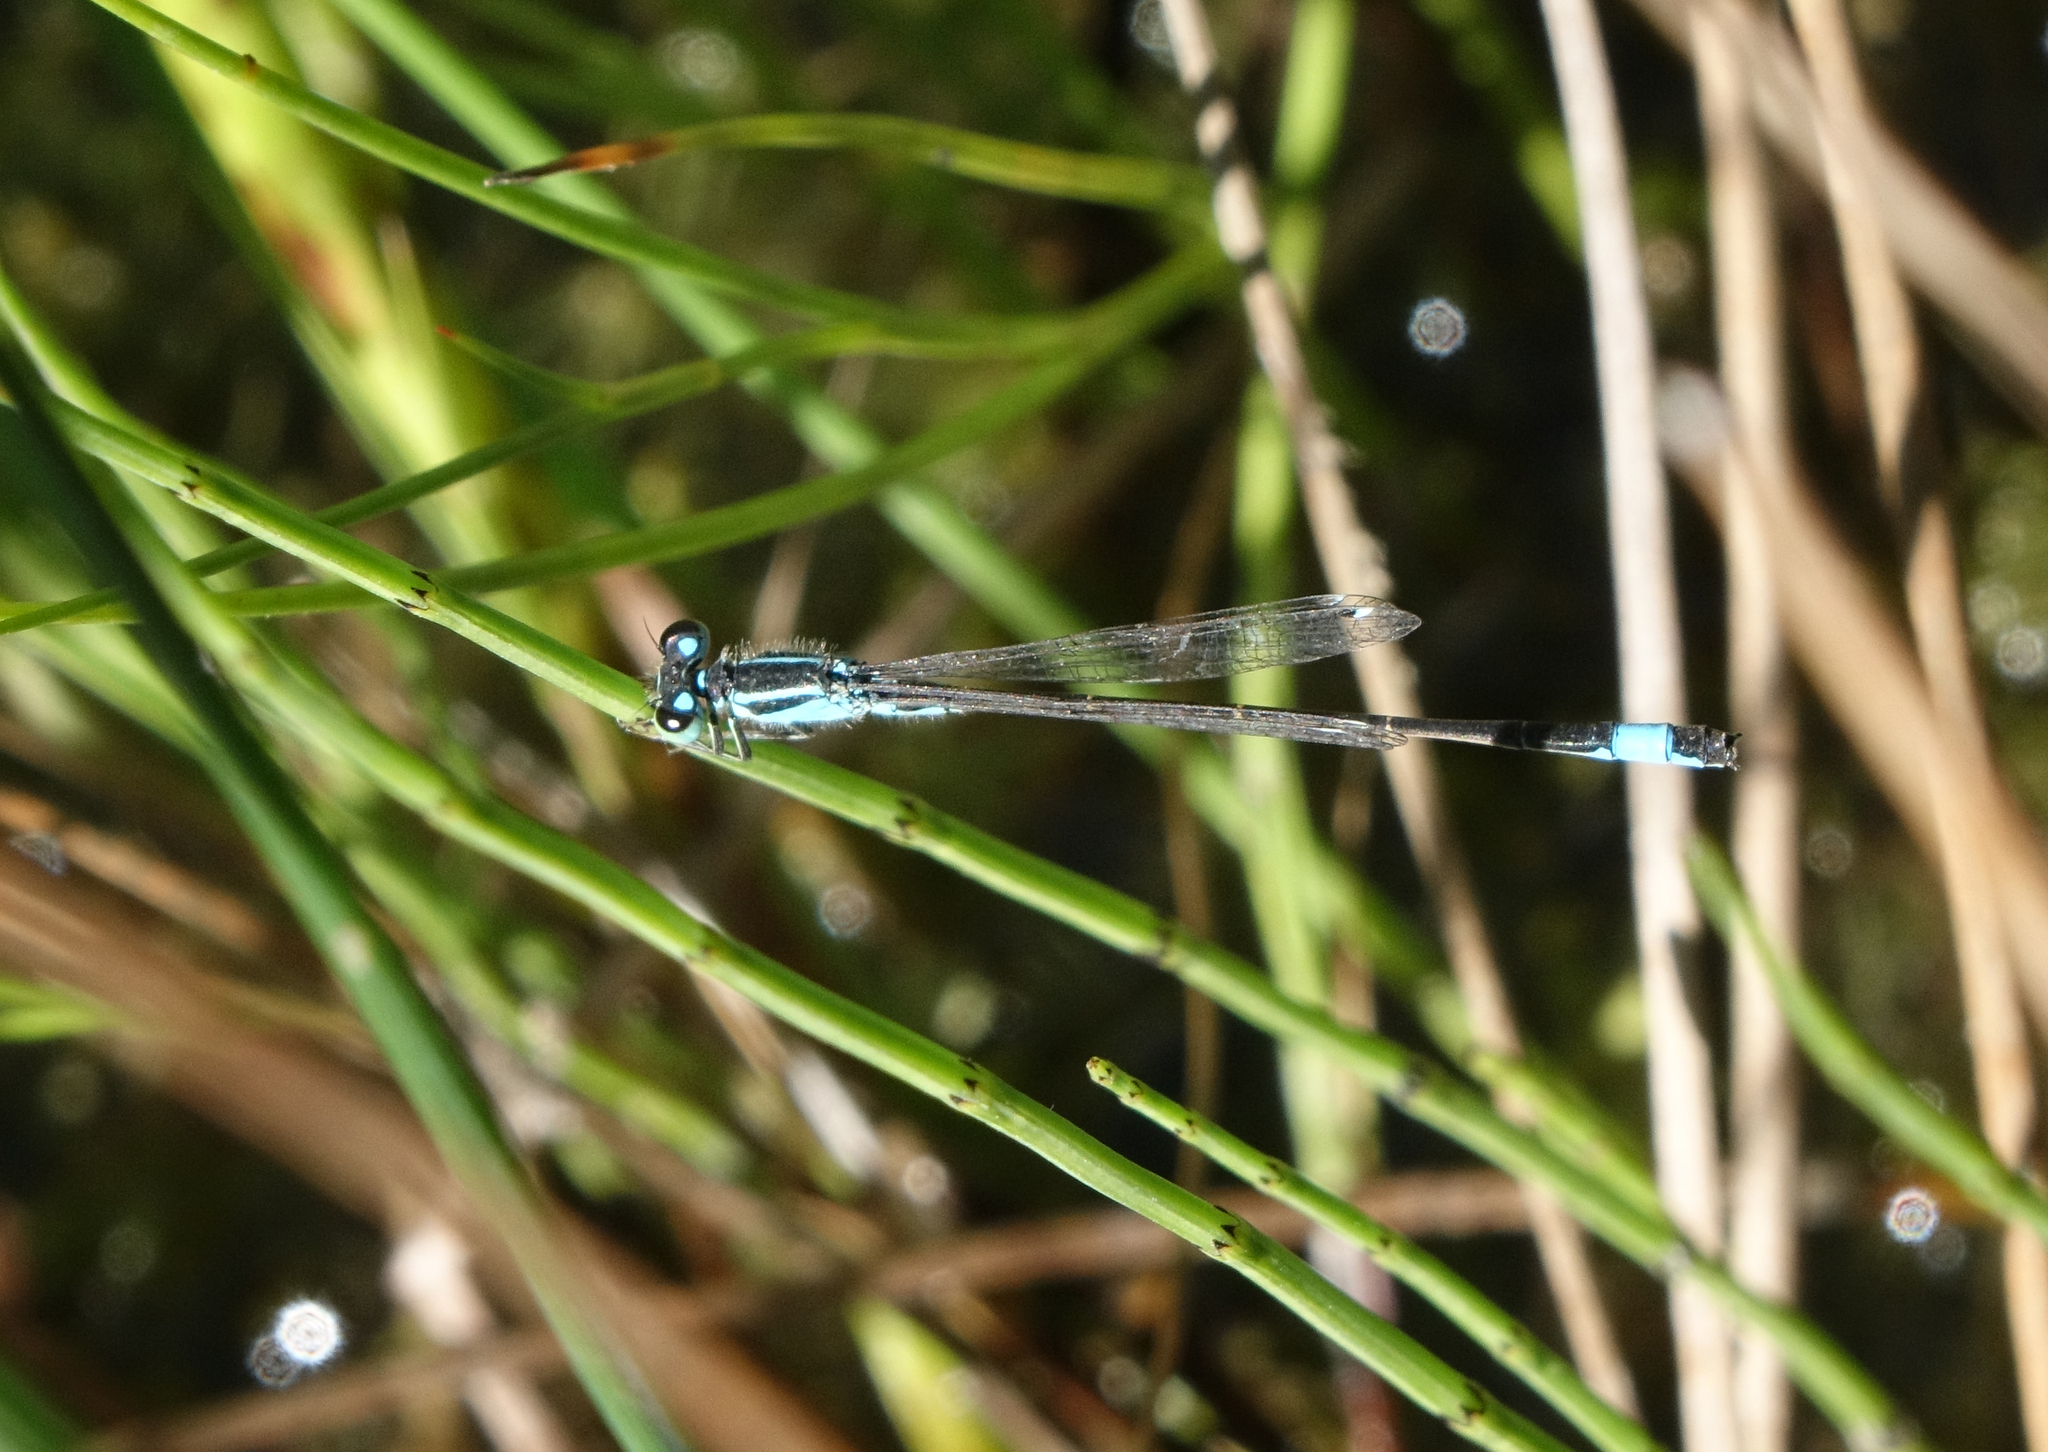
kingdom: Animalia
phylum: Arthropoda
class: Insecta
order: Odonata
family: Coenagrionidae
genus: Ischnura
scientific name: Ischnura elegans
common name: Blue-tailed damselfly
